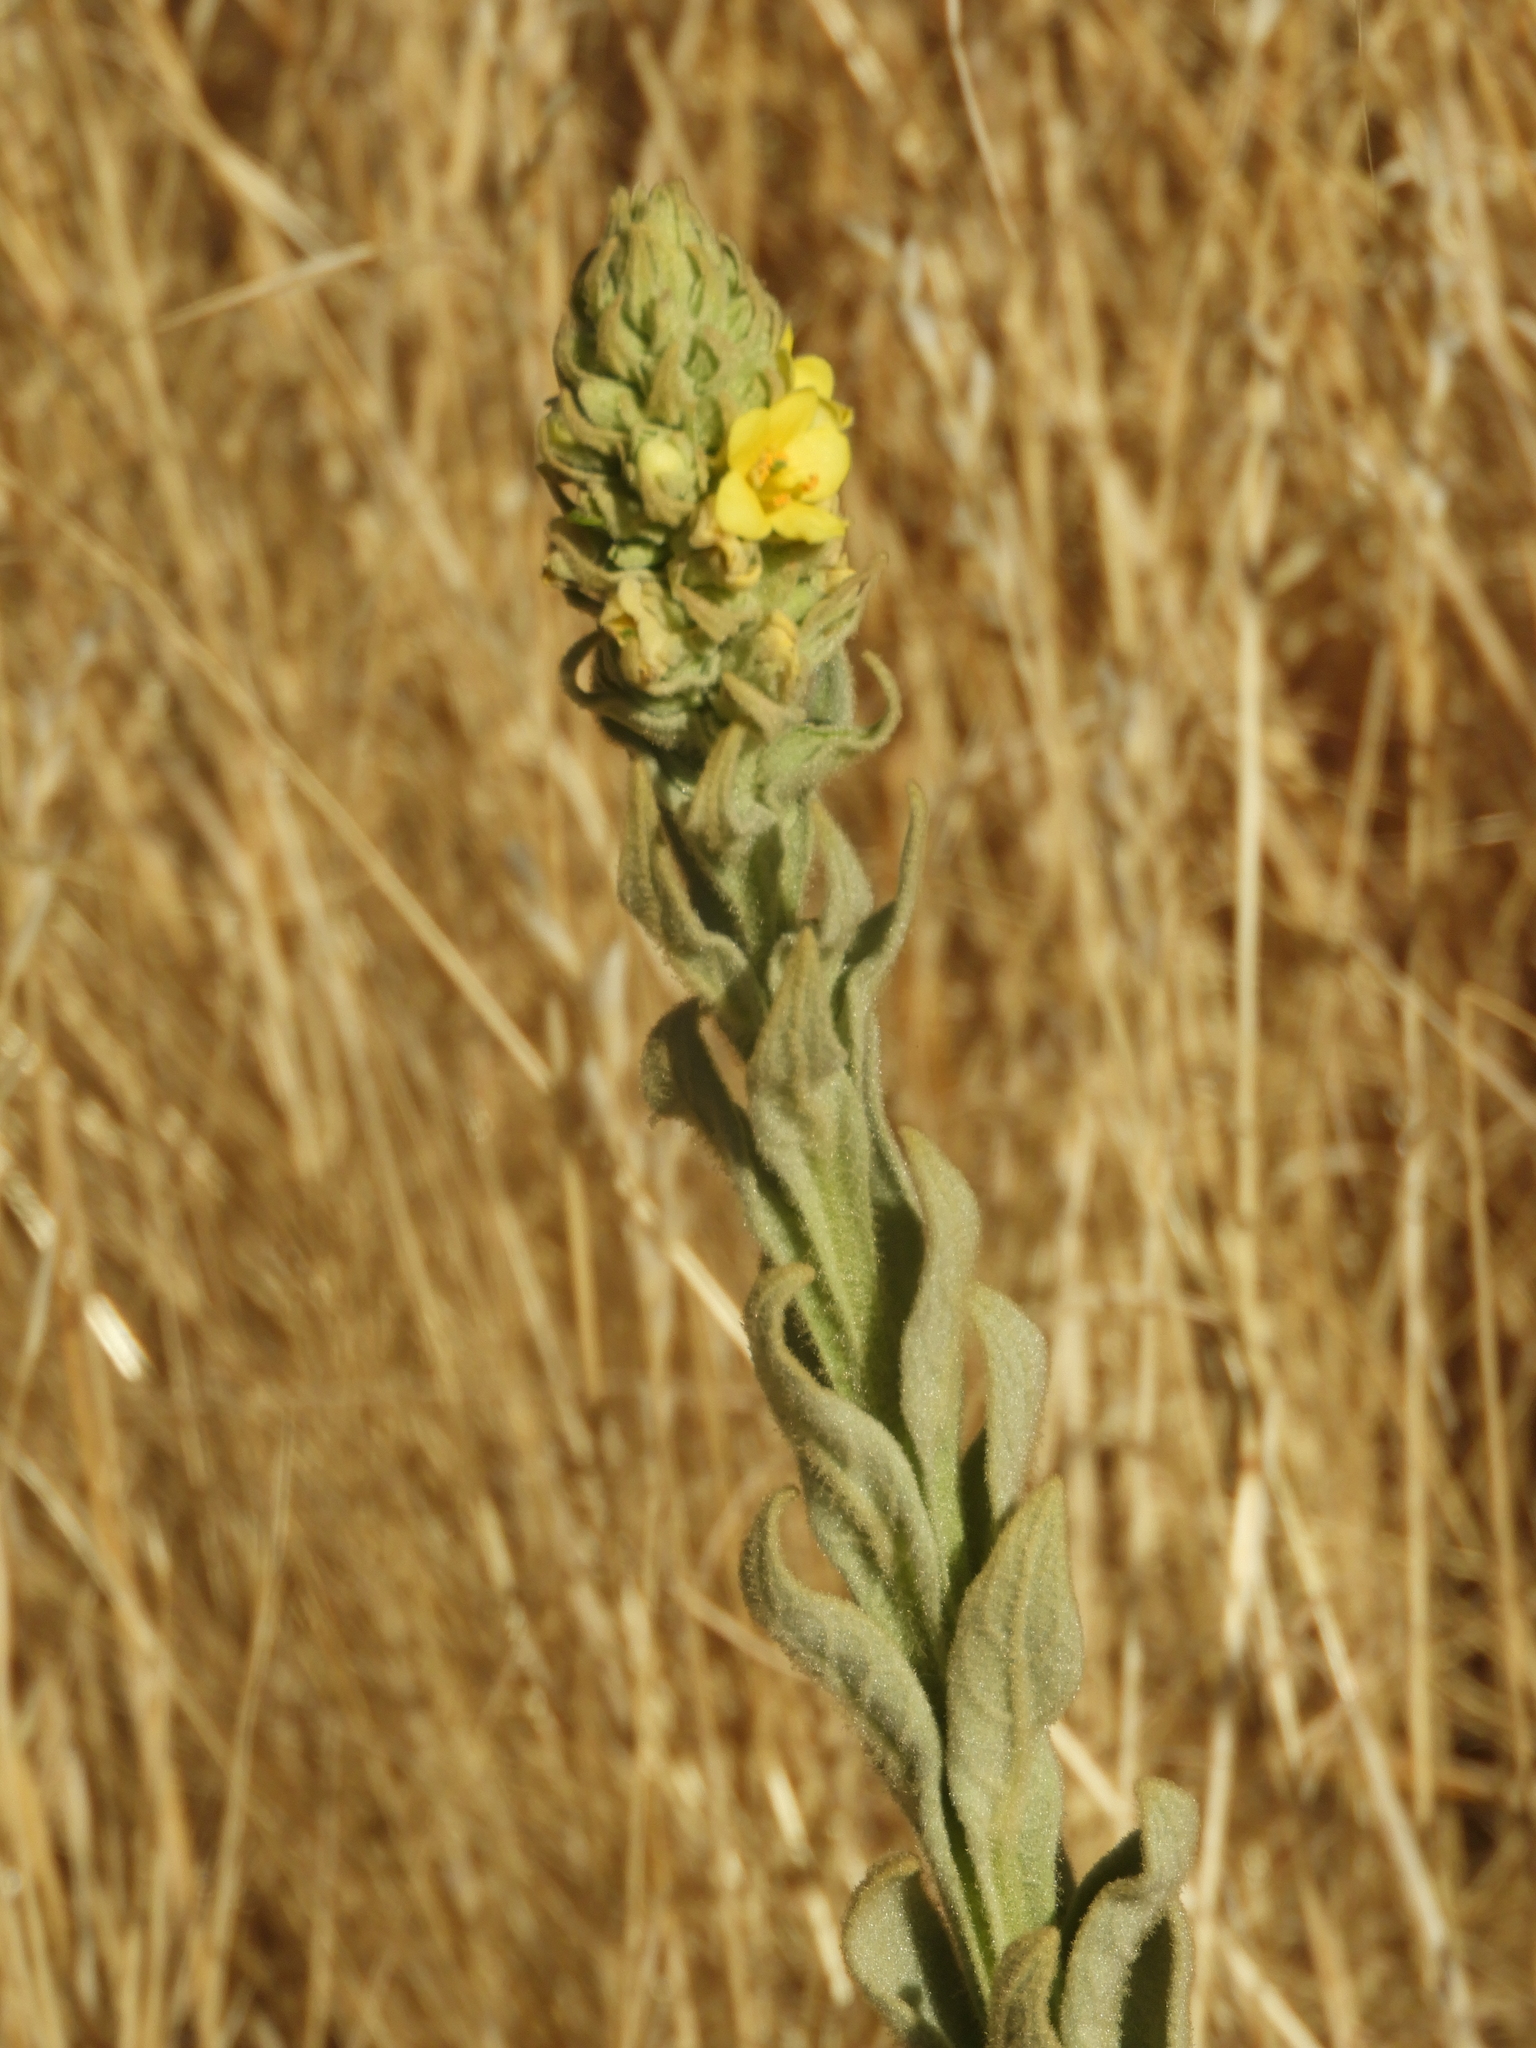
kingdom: Plantae
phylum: Tracheophyta
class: Magnoliopsida
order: Lamiales
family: Scrophulariaceae
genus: Verbascum
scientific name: Verbascum thapsus
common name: Common mullein
